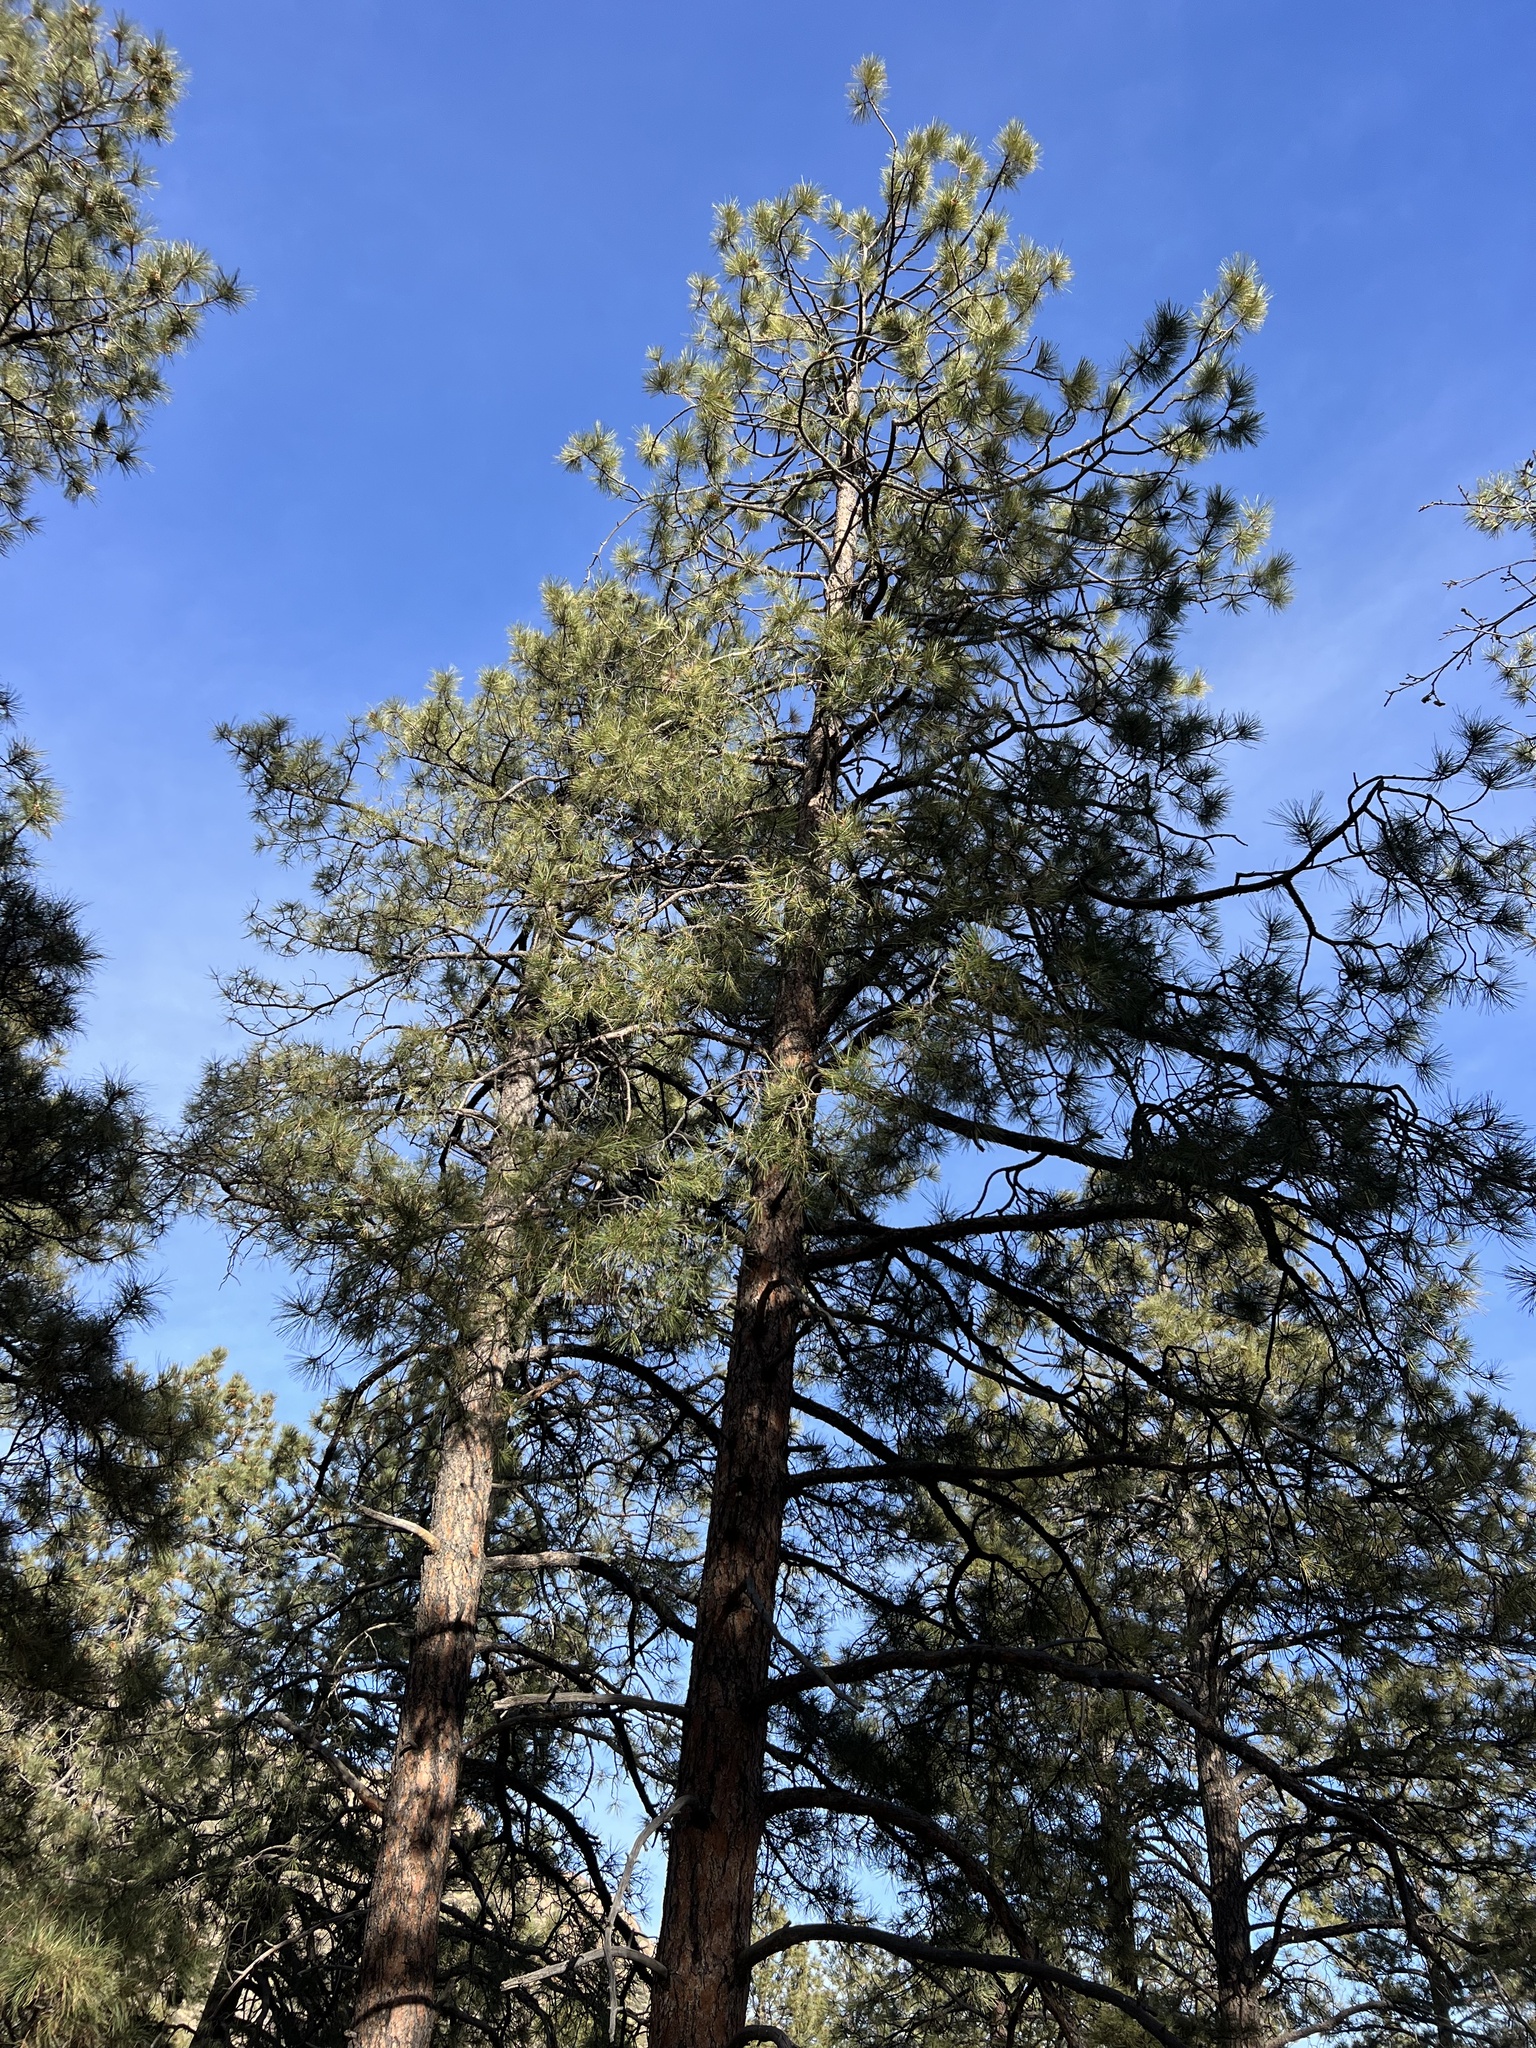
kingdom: Plantae
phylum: Tracheophyta
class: Pinopsida
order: Pinales
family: Pinaceae
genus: Pinus
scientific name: Pinus ponderosa
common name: Western yellow-pine
